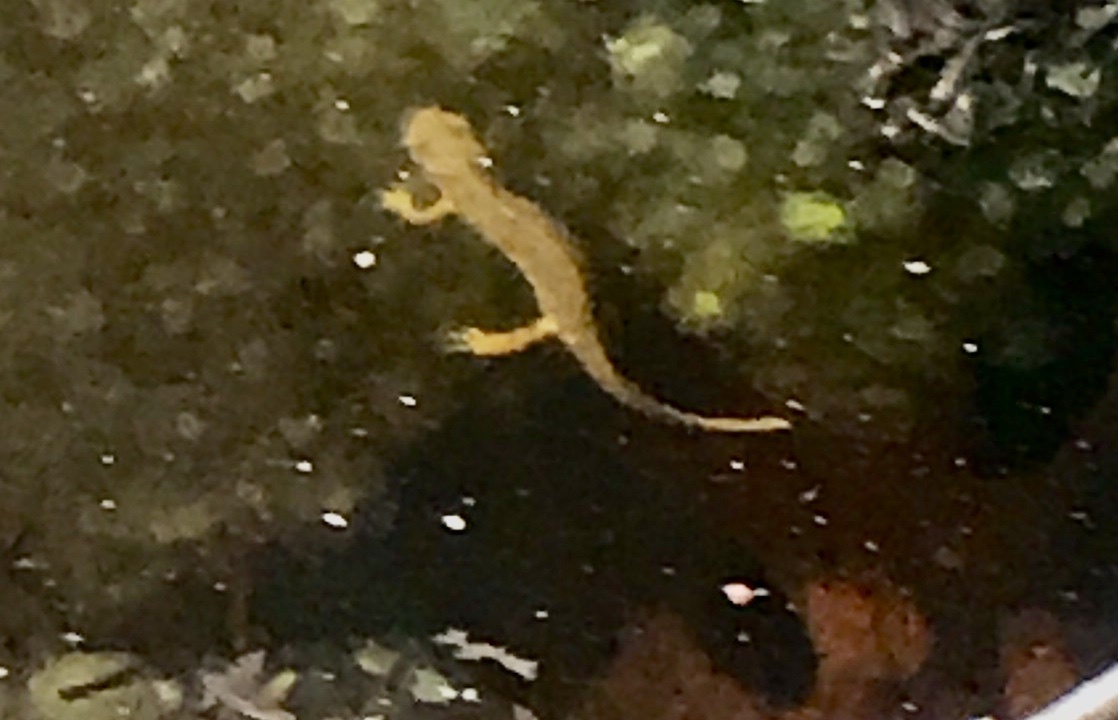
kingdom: Animalia
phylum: Chordata
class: Amphibia
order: Caudata
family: Salamandridae
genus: Notophthalmus
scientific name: Notophthalmus viridescens
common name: Eastern newt
